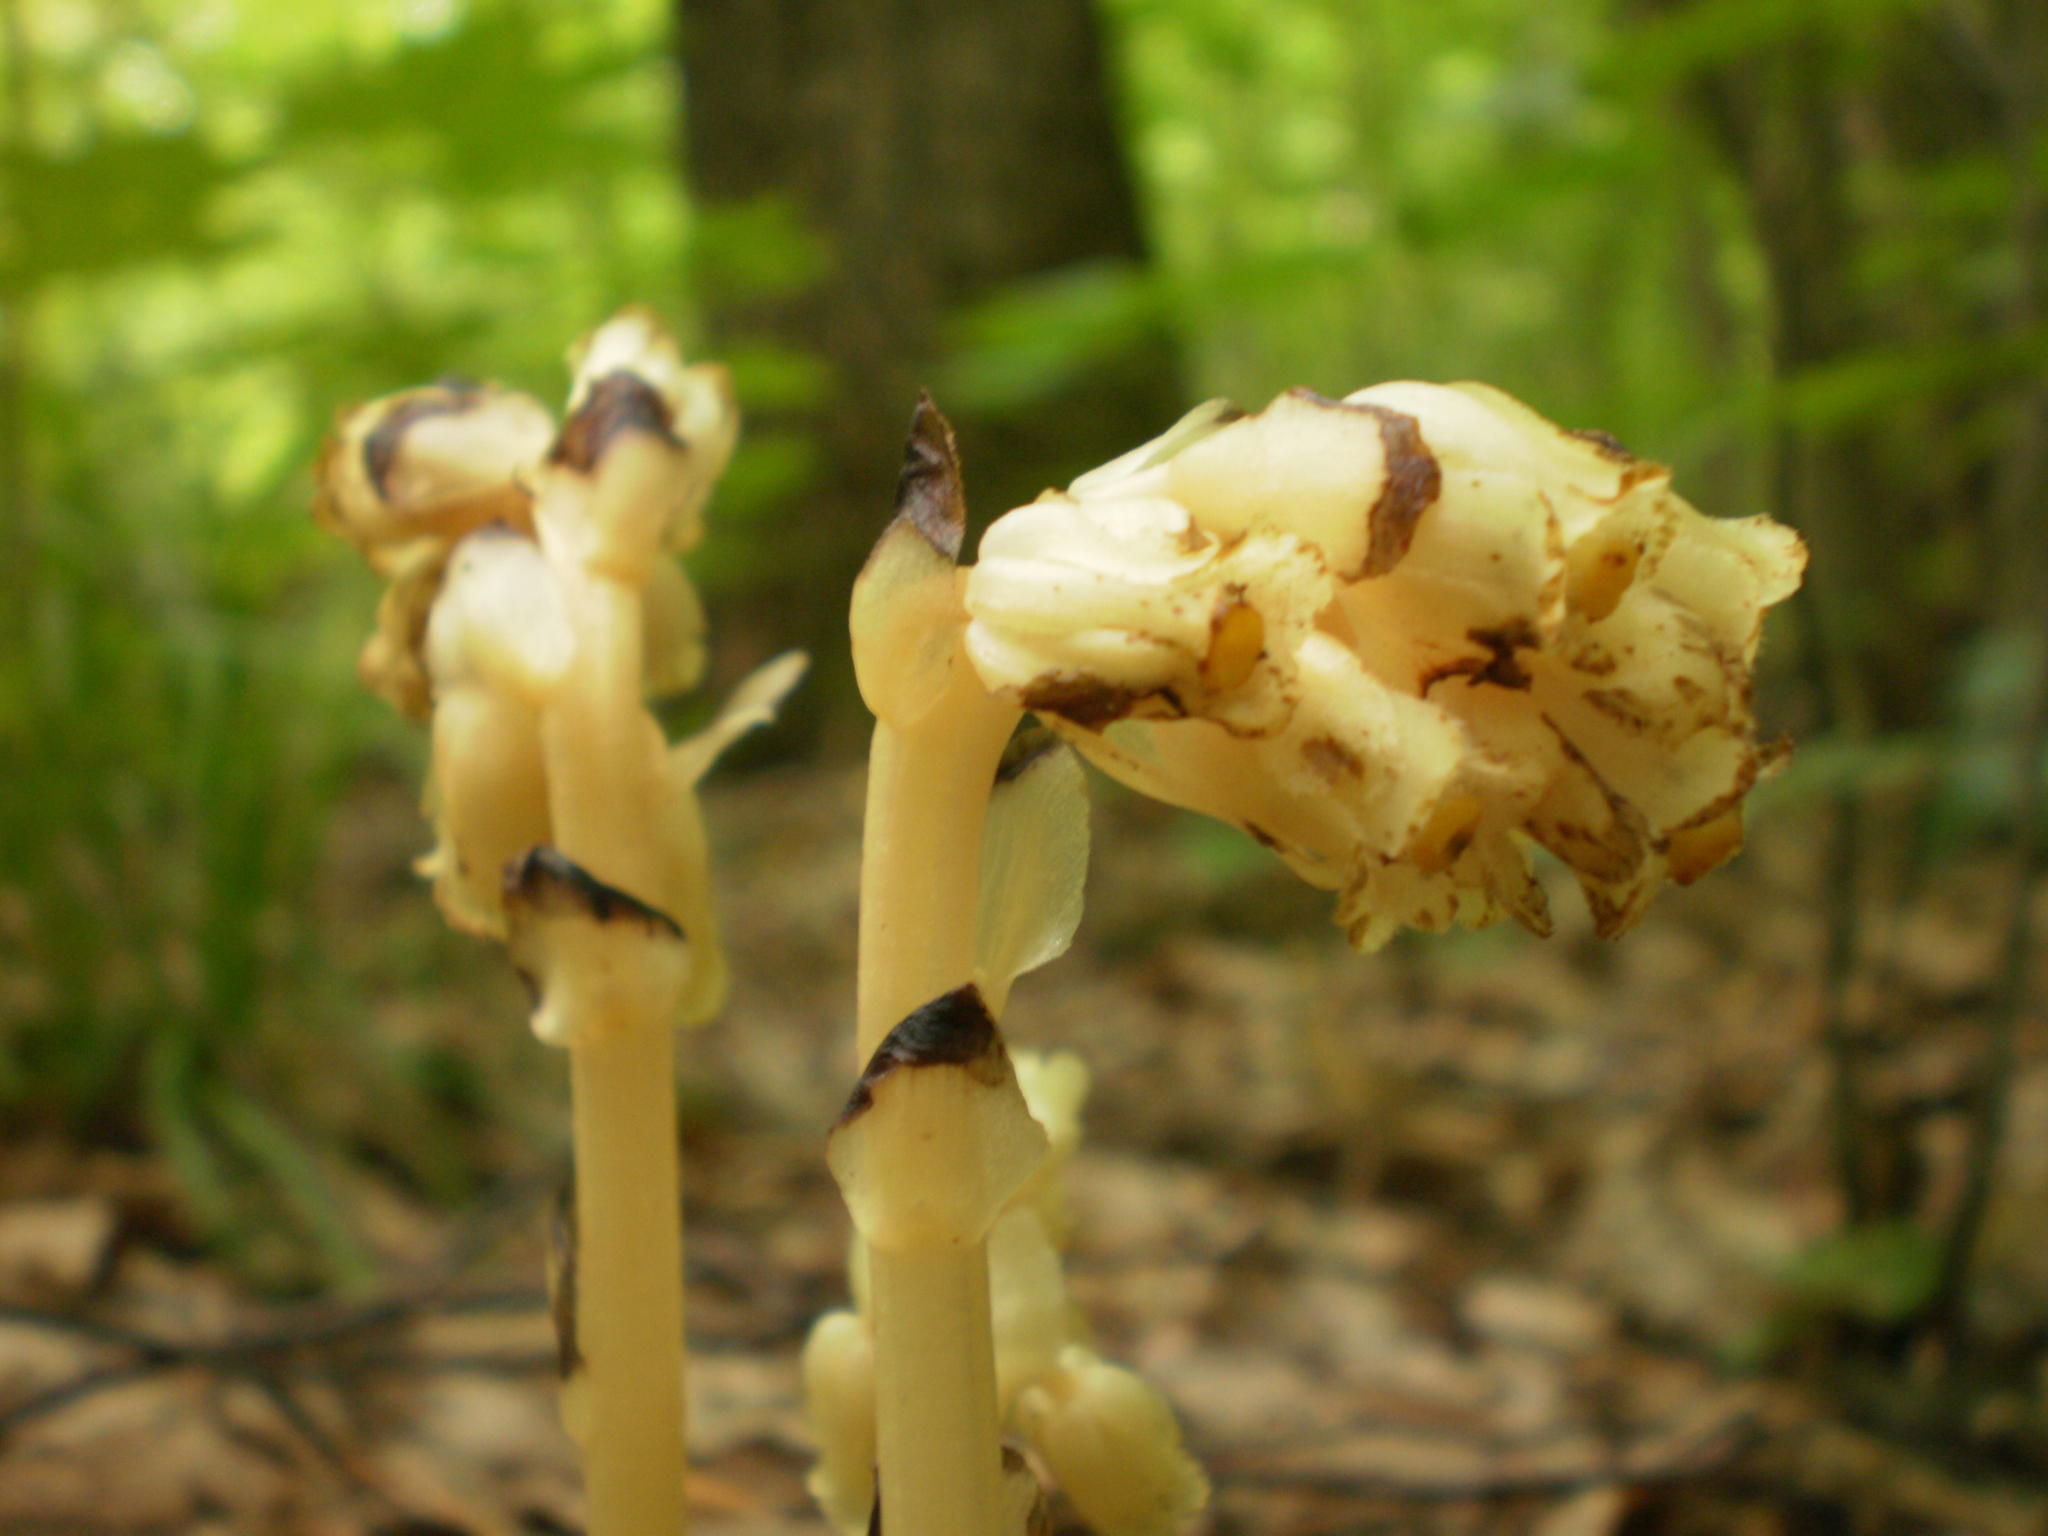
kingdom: Plantae
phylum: Tracheophyta
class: Magnoliopsida
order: Ericales
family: Ericaceae
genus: Hypopitys
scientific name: Hypopitys monotropa
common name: Yellow bird's-nest
